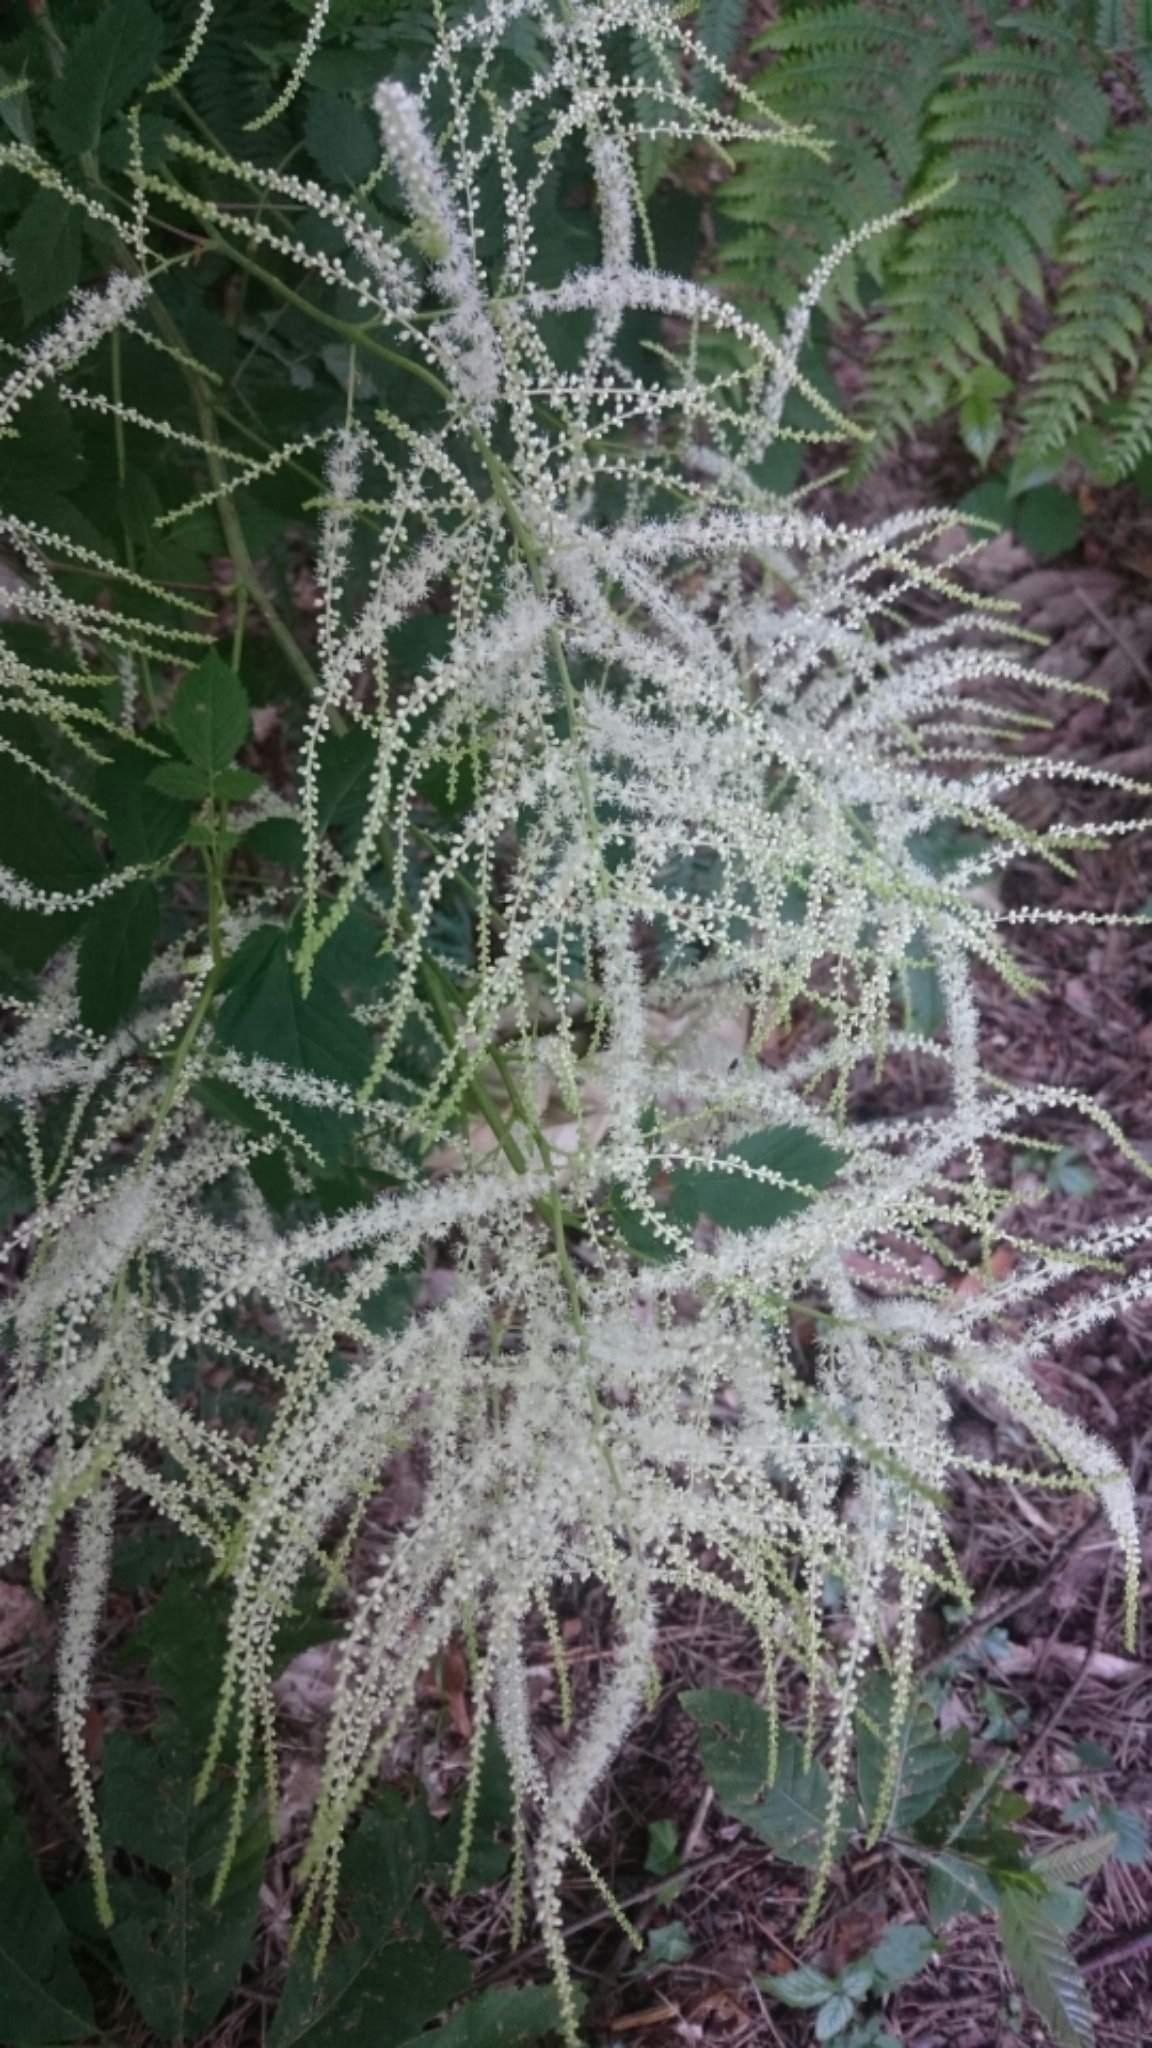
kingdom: Plantae
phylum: Tracheophyta
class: Magnoliopsida
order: Rosales
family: Rosaceae
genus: Aruncus
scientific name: Aruncus dioicus
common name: Buck's-beard
